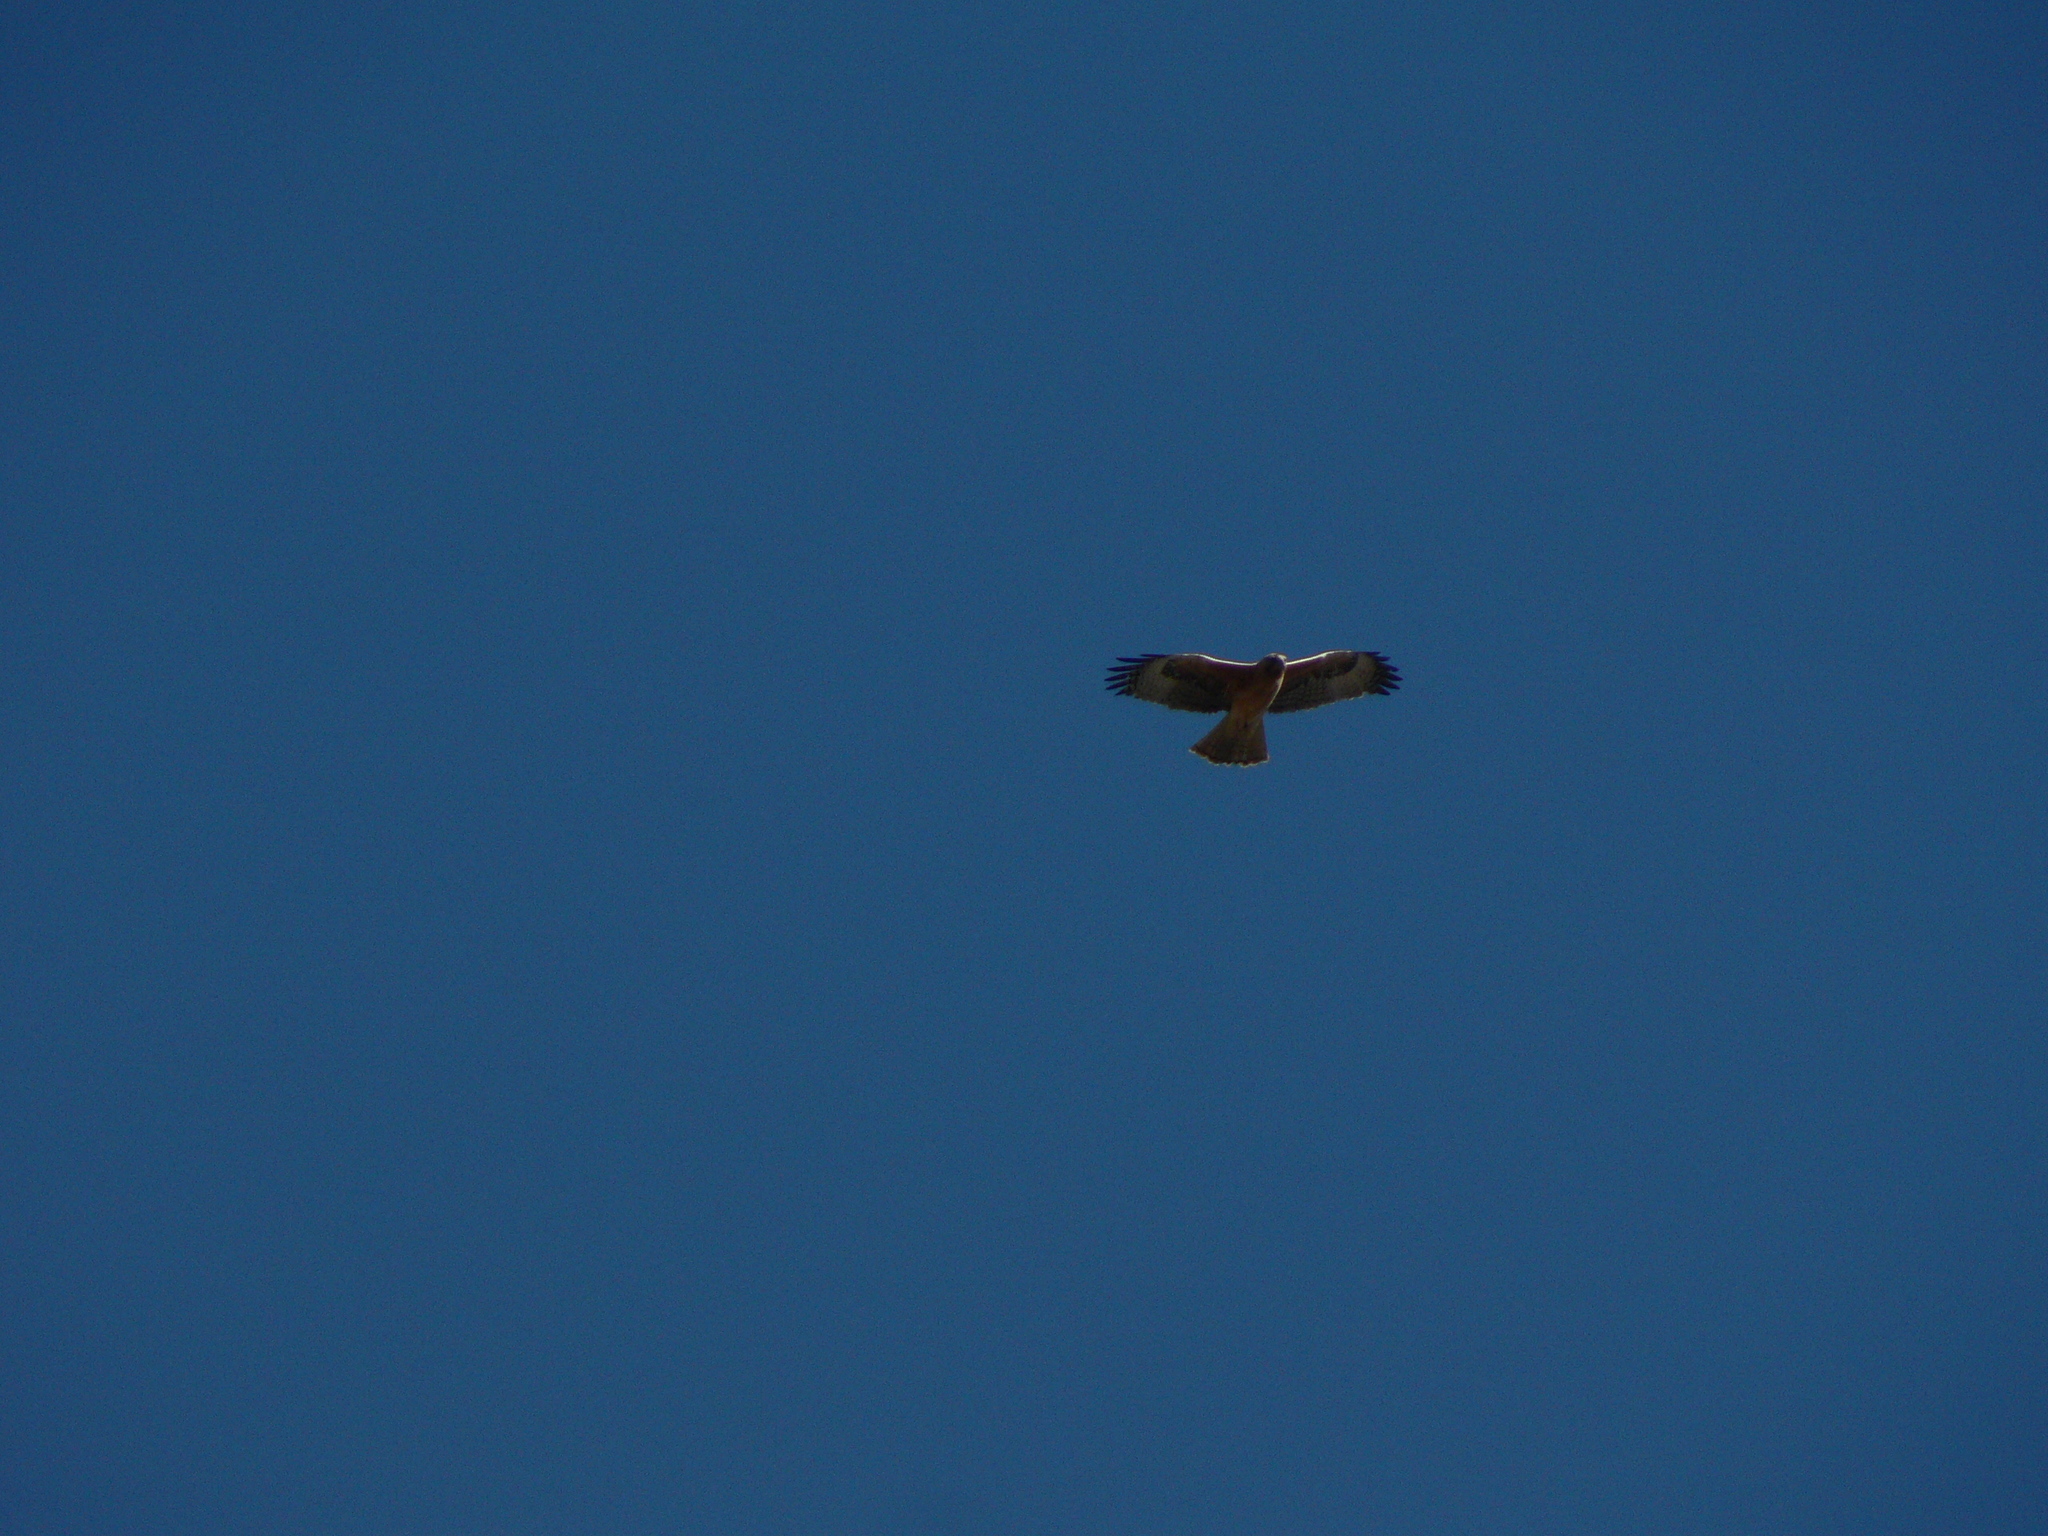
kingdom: Animalia
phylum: Chordata
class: Aves
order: Accipitriformes
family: Accipitridae
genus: Hieraaetus
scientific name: Hieraaetus morphnoides
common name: Little eagle
